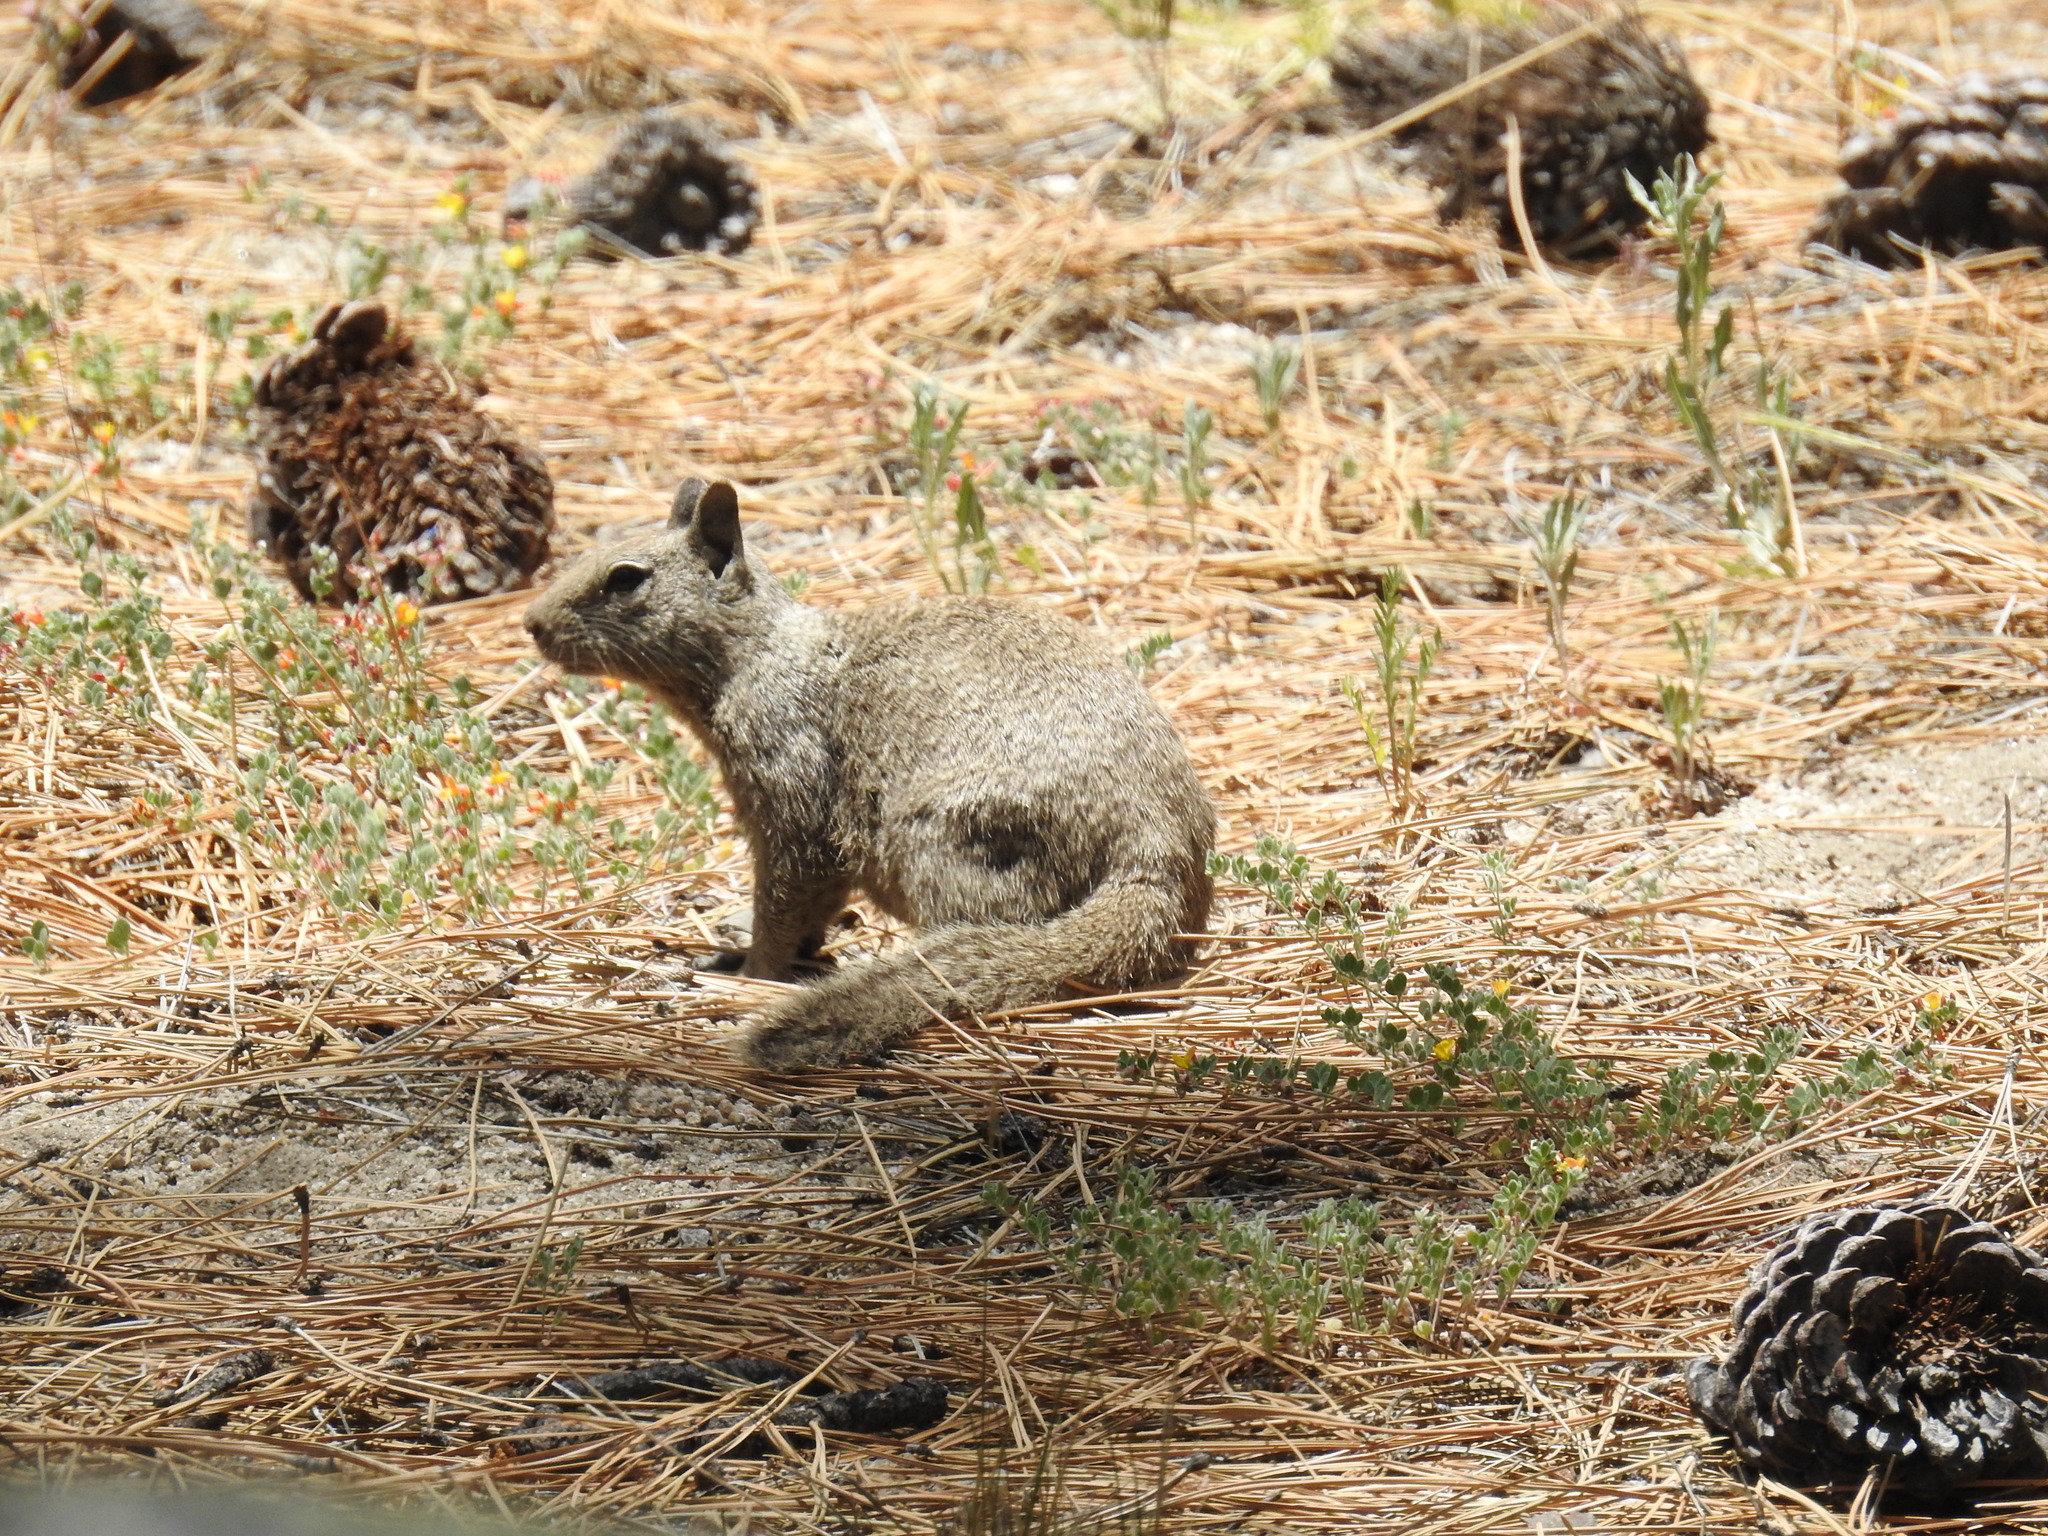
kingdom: Animalia
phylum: Chordata
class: Mammalia
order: Rodentia
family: Sciuridae
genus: Otospermophilus
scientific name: Otospermophilus beecheyi
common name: California ground squirrel
